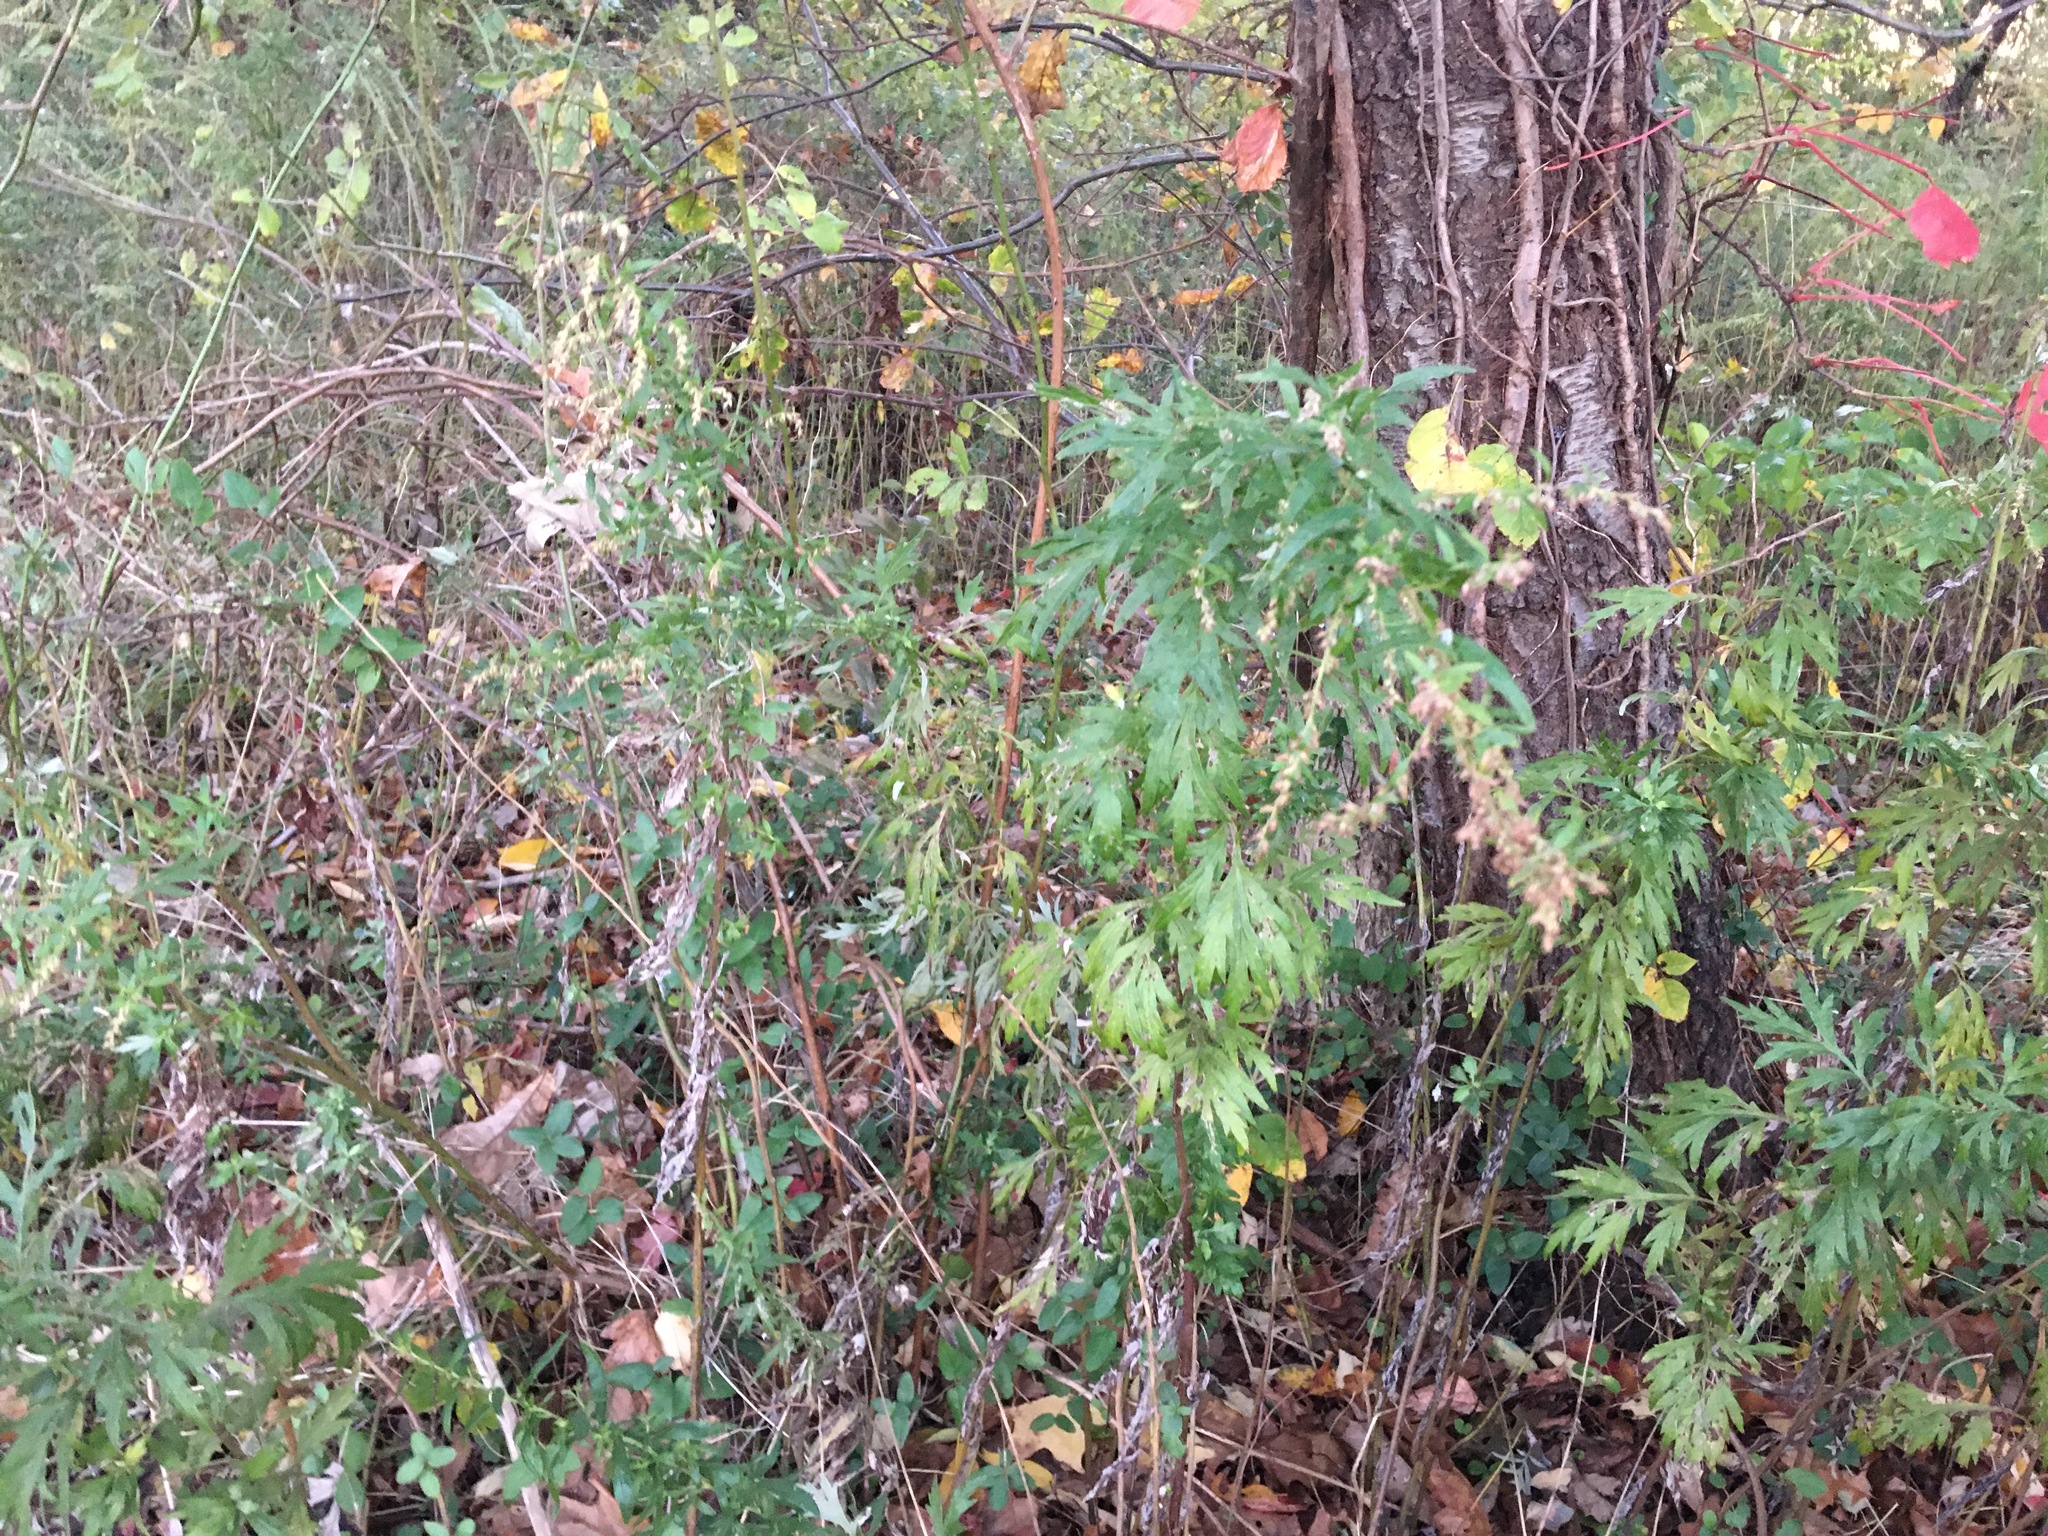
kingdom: Plantae
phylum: Tracheophyta
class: Magnoliopsida
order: Asterales
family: Asteraceae
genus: Artemisia
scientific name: Artemisia vulgaris
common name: Mugwort
